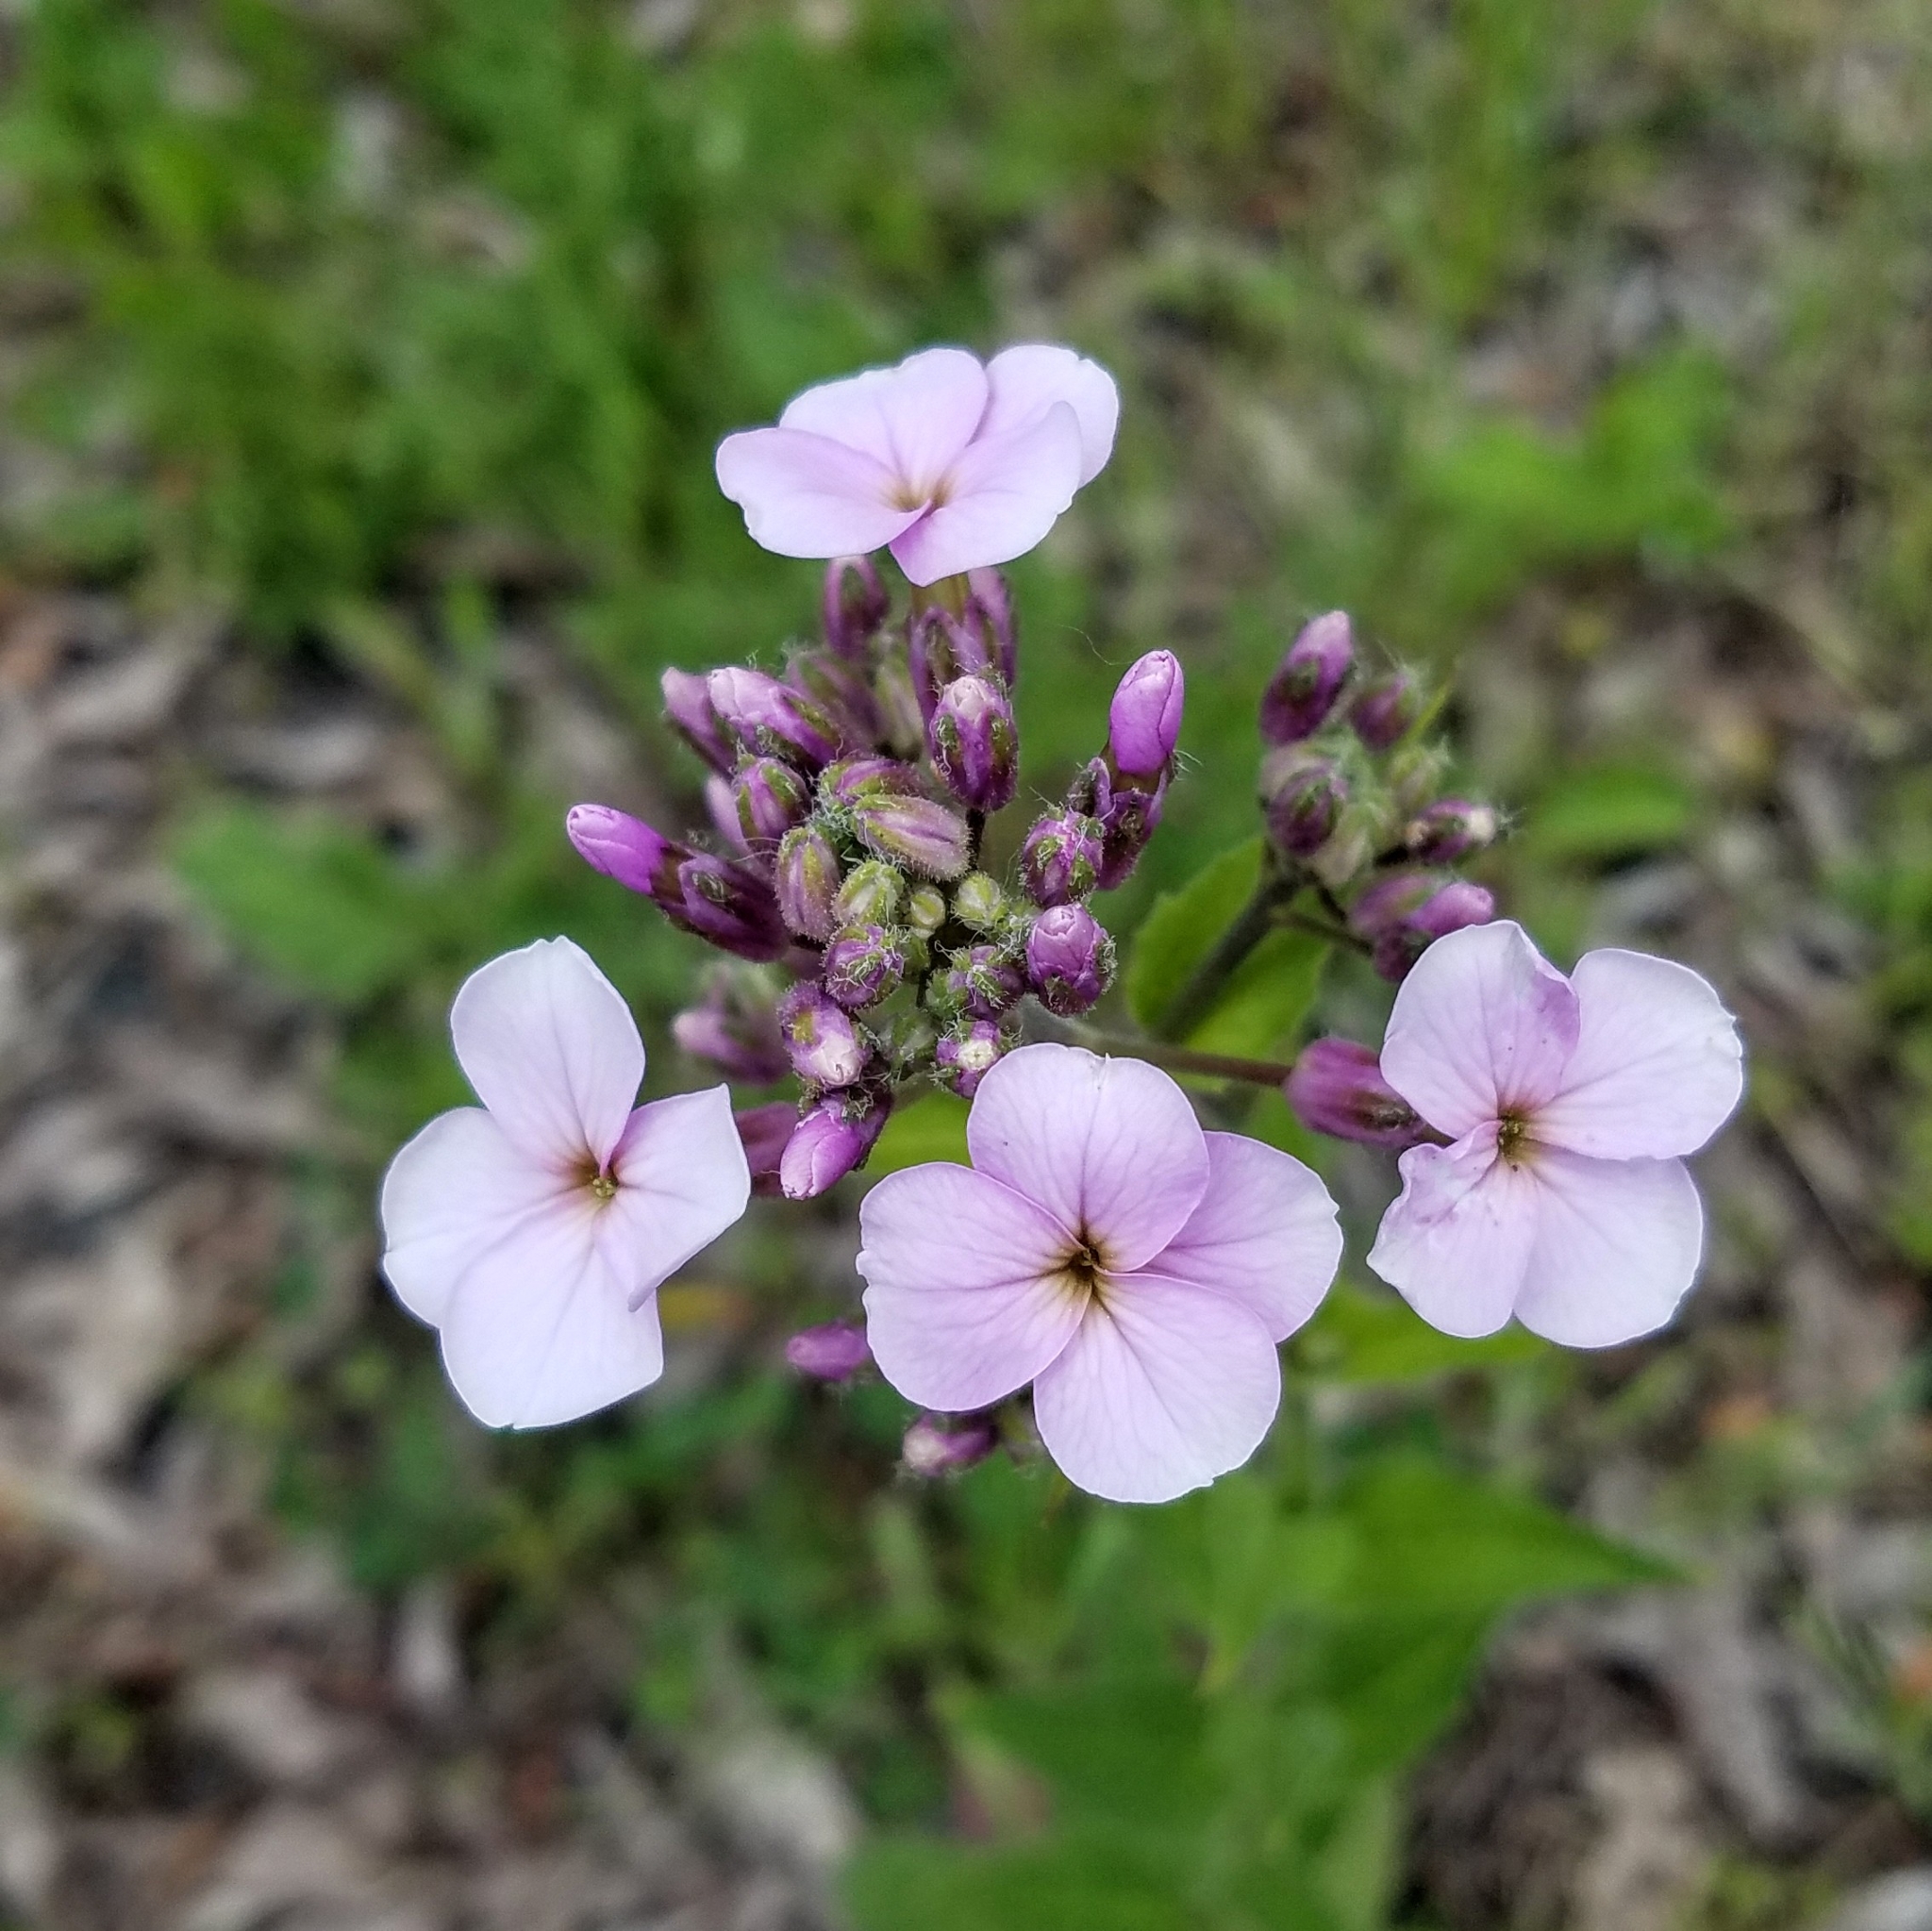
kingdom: Plantae
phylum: Tracheophyta
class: Magnoliopsida
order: Brassicales
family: Brassicaceae
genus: Hesperis
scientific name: Hesperis matronalis
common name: Dame's-violet
